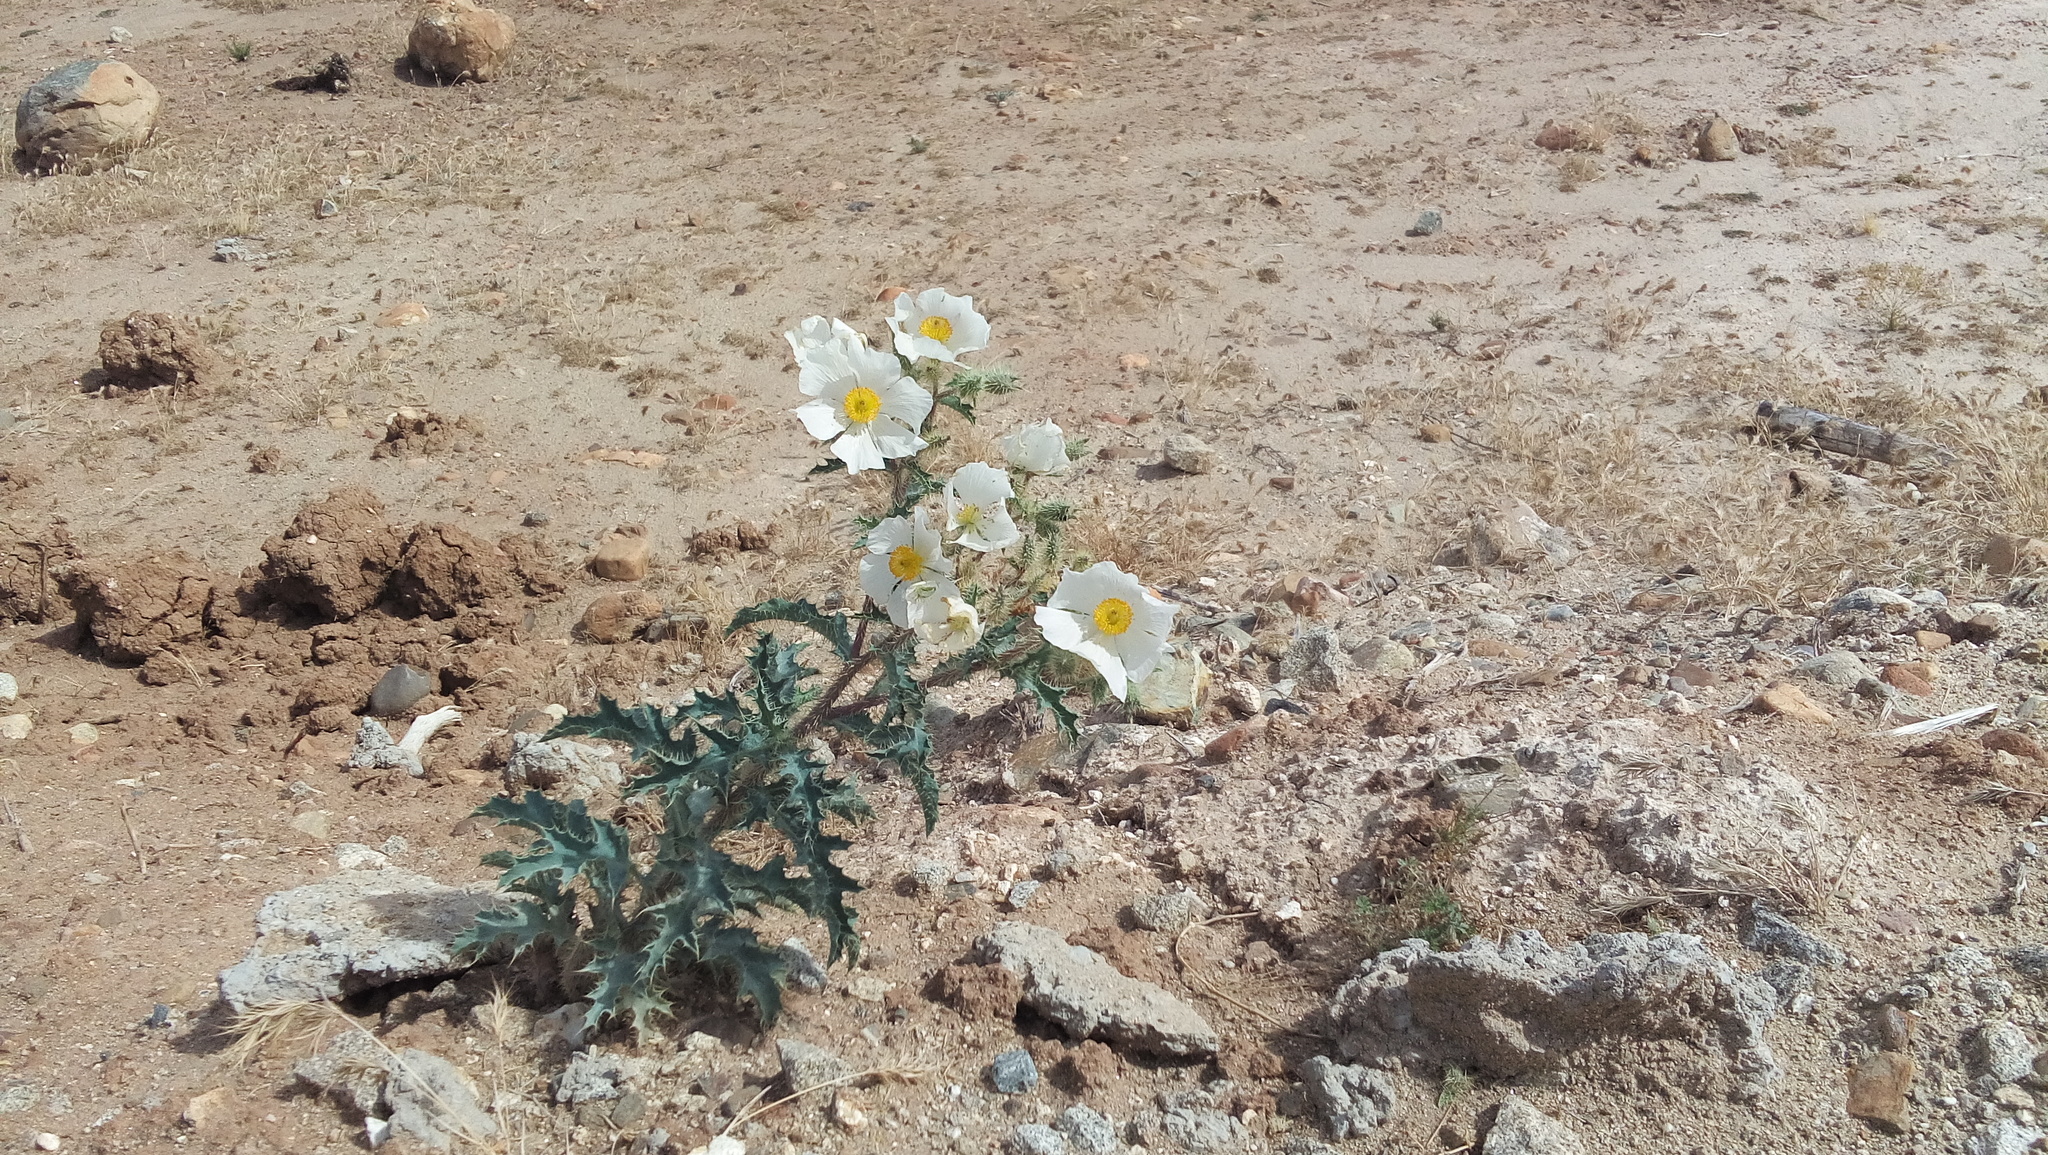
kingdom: Plantae
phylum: Tracheophyta
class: Magnoliopsida
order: Ranunculales
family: Papaveraceae
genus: Argemone
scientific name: Argemone munita
